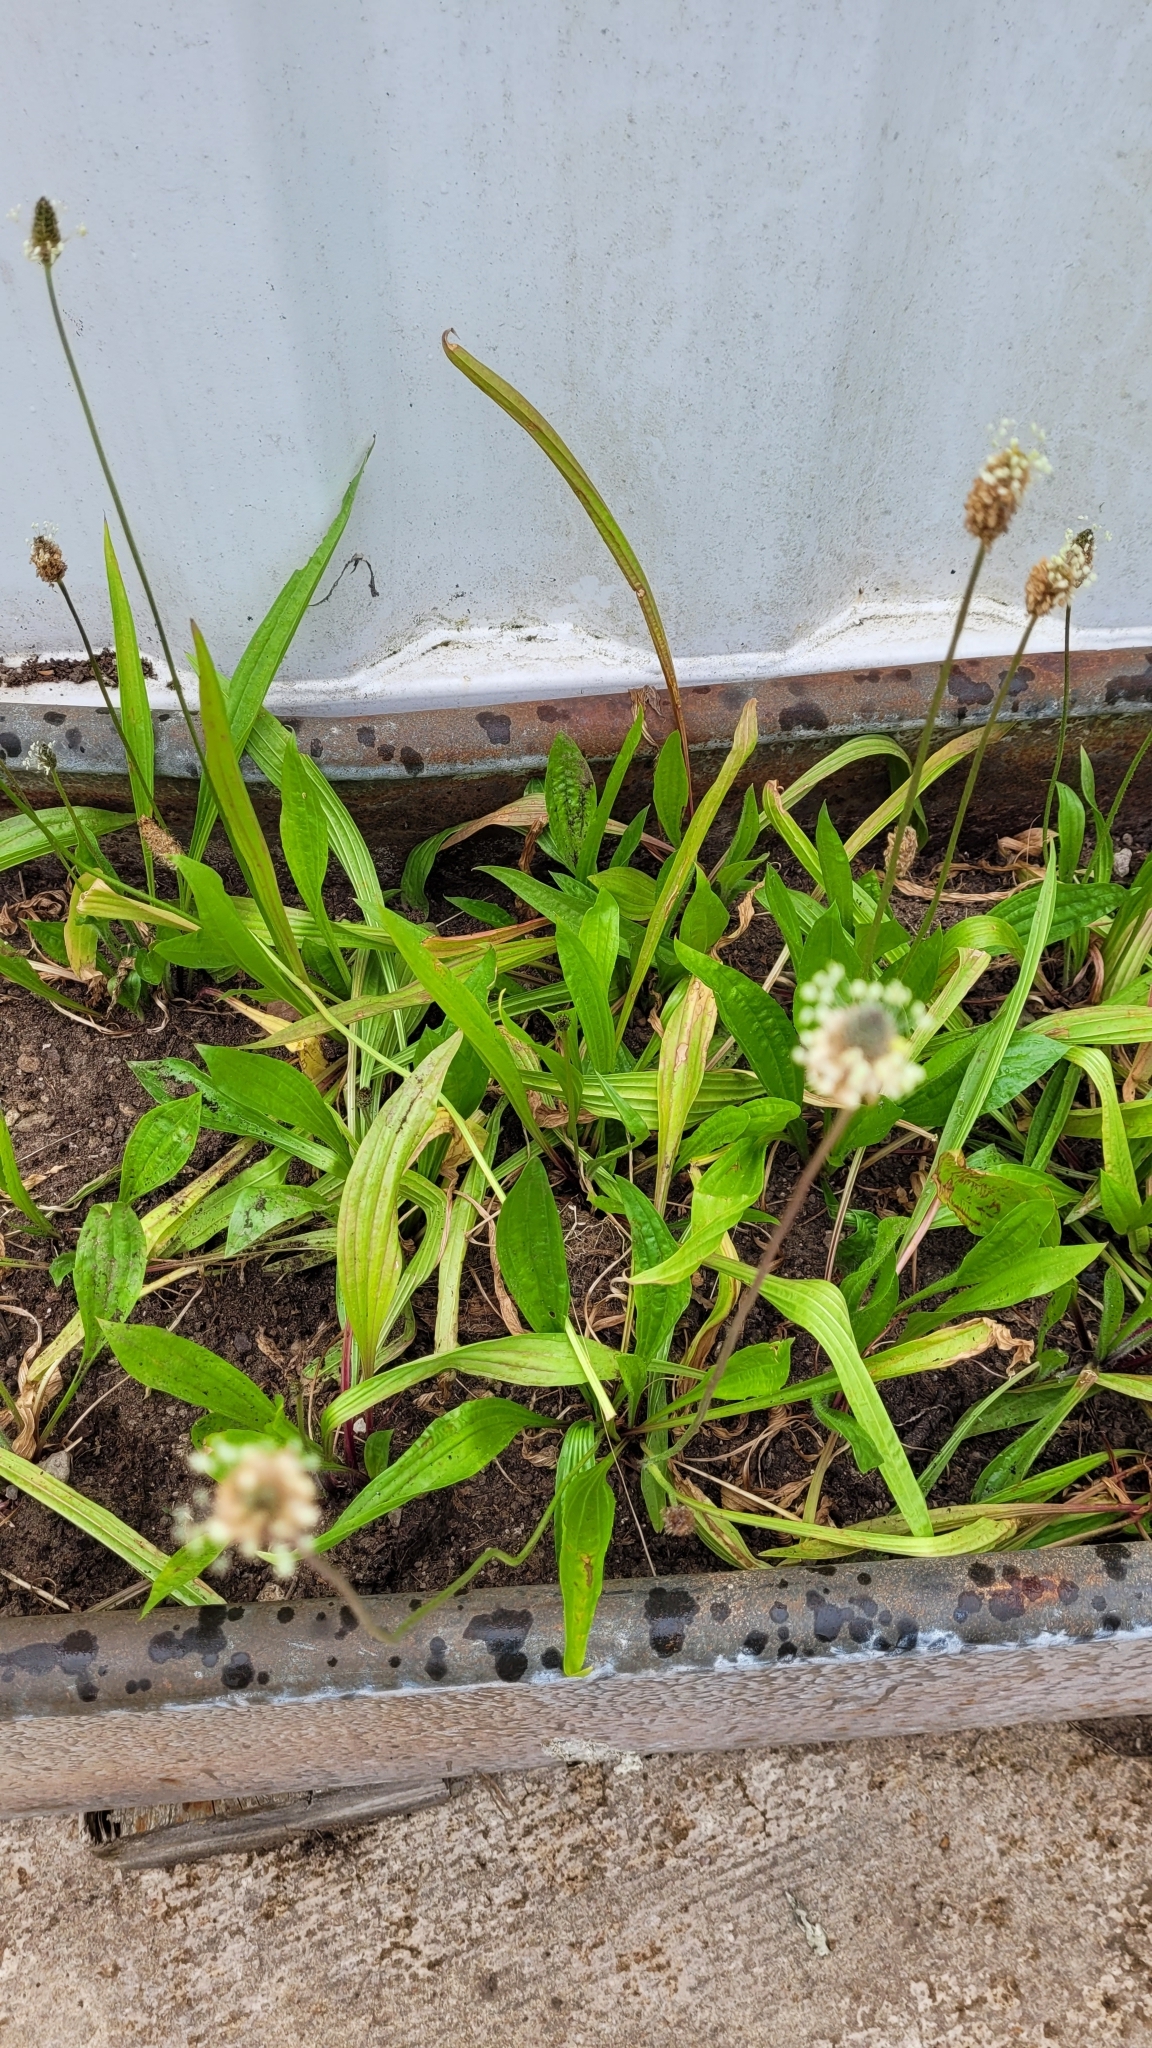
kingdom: Plantae
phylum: Tracheophyta
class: Magnoliopsida
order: Lamiales
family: Plantaginaceae
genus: Plantago
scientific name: Plantago lanceolata
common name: Ribwort plantain
